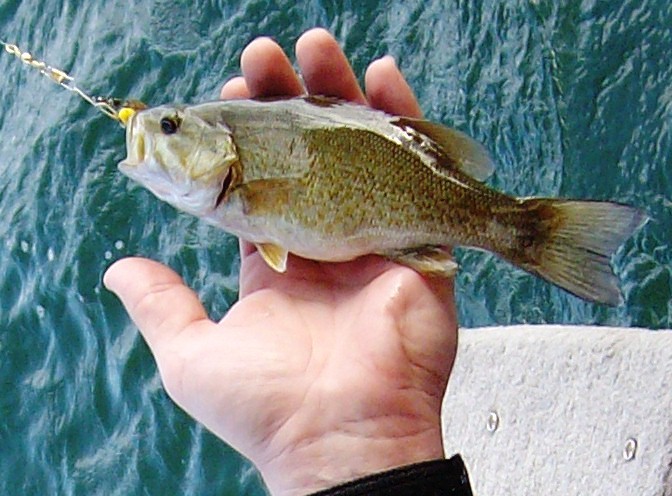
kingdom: Animalia
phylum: Chordata
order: Perciformes
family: Centrarchidae
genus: Micropterus
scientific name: Micropterus dolomieu
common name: Smallmouth bass
